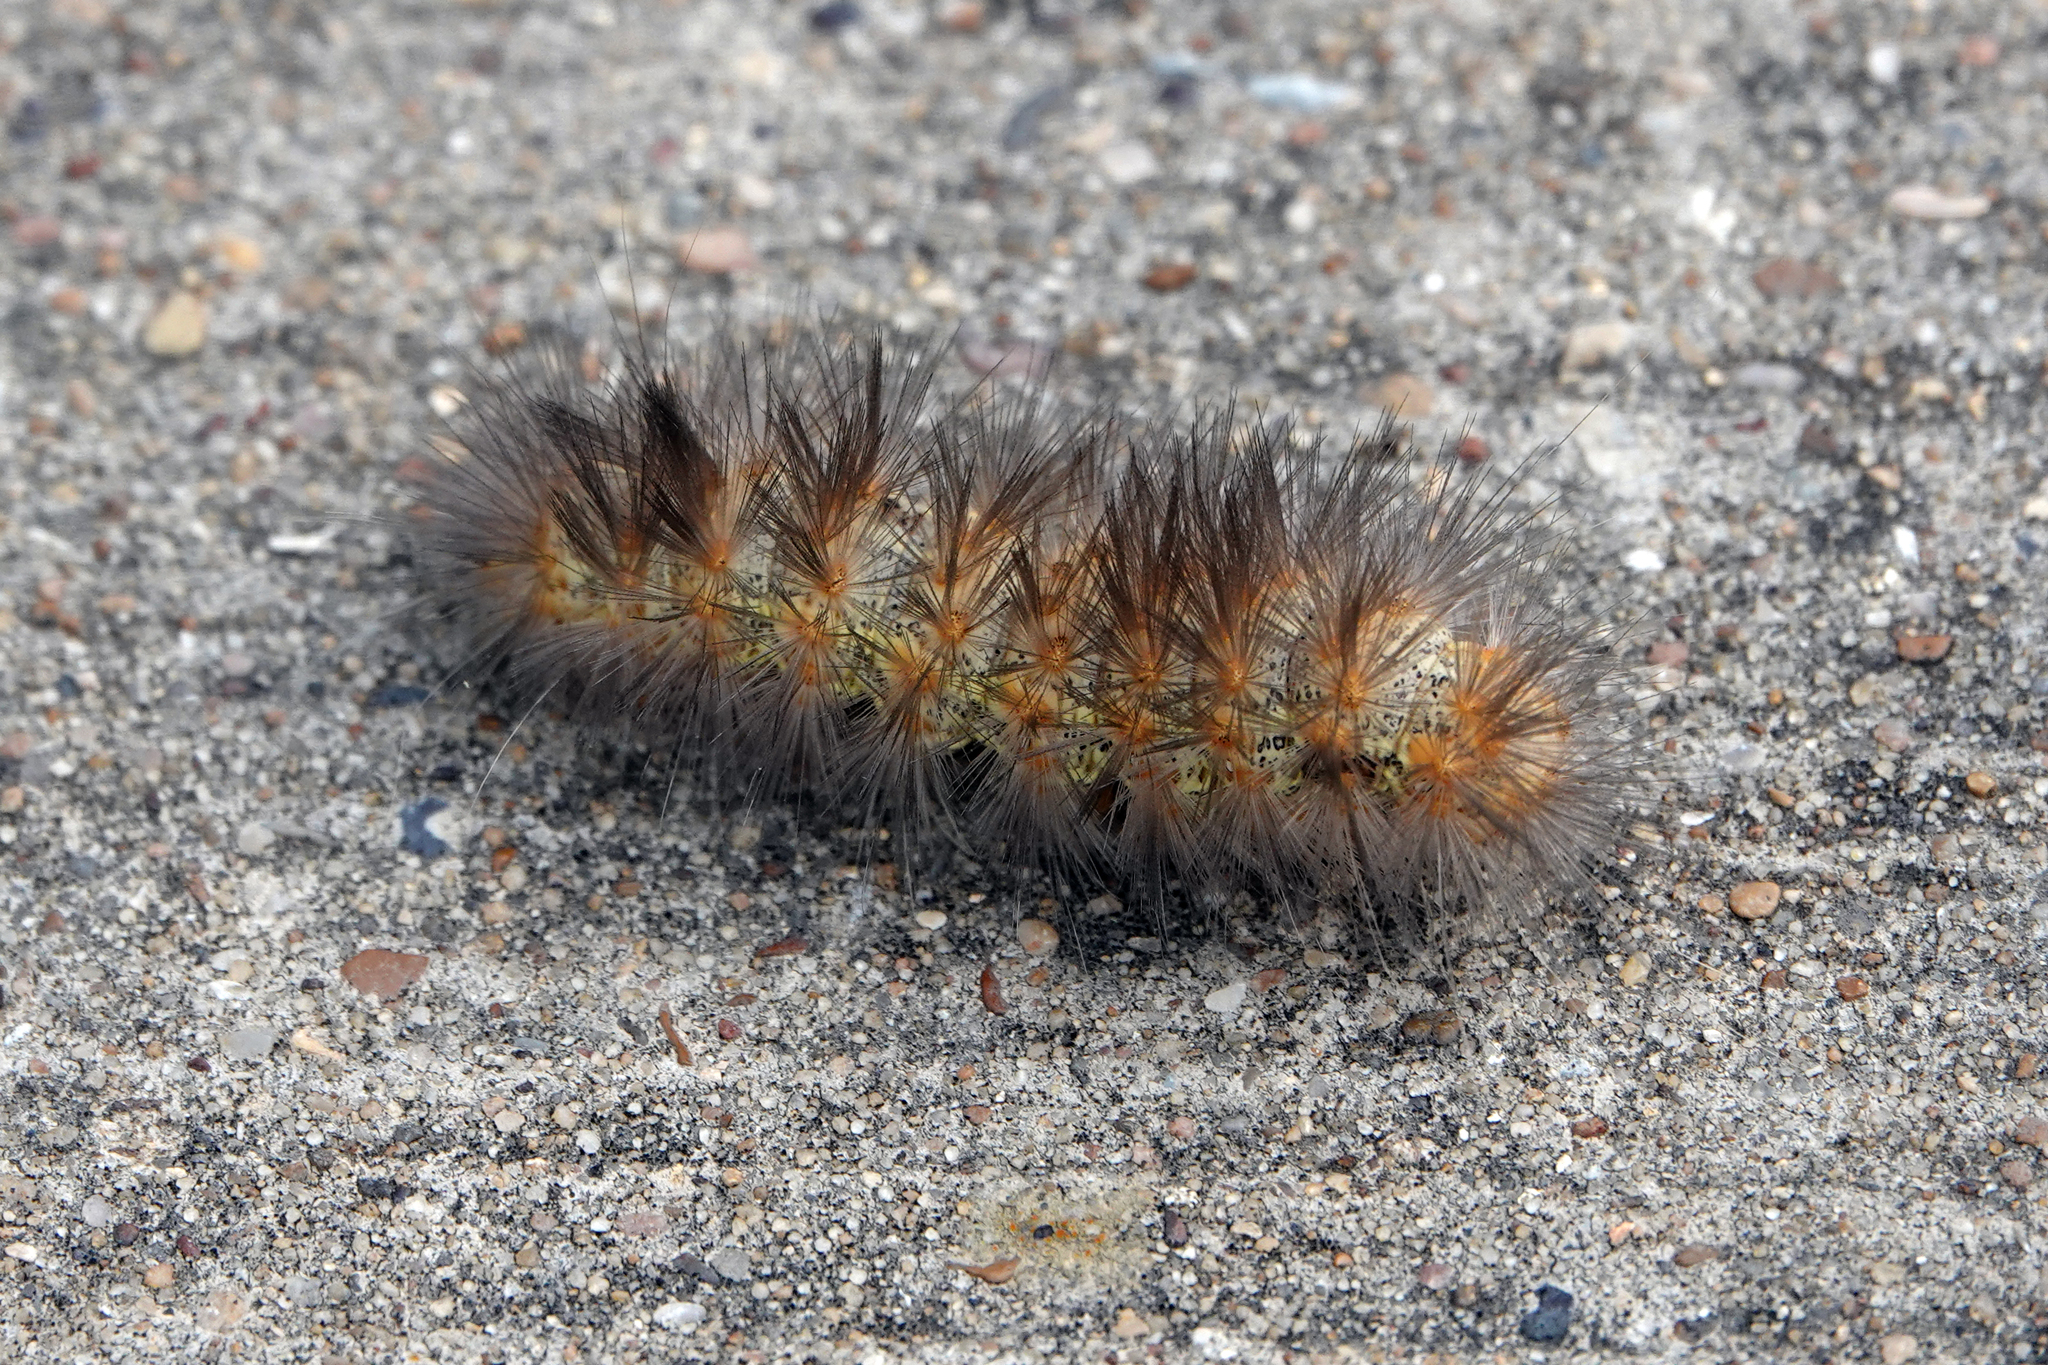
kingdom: Animalia
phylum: Arthropoda
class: Insecta
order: Lepidoptera
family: Erebidae
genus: Estigmene
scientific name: Estigmene acrea
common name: Salt marsh moth
